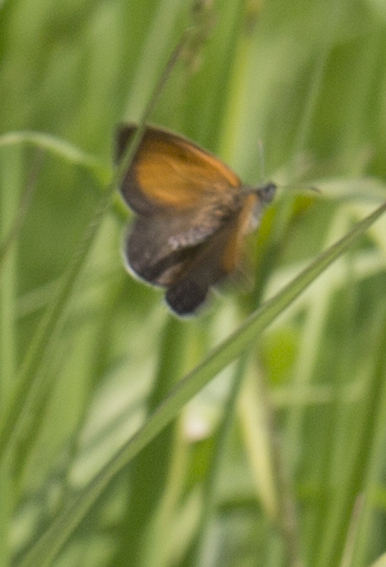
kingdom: Animalia
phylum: Arthropoda
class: Insecta
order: Lepidoptera
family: Nymphalidae
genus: Coenonympha
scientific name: Coenonympha arcania
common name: Pearly heath
